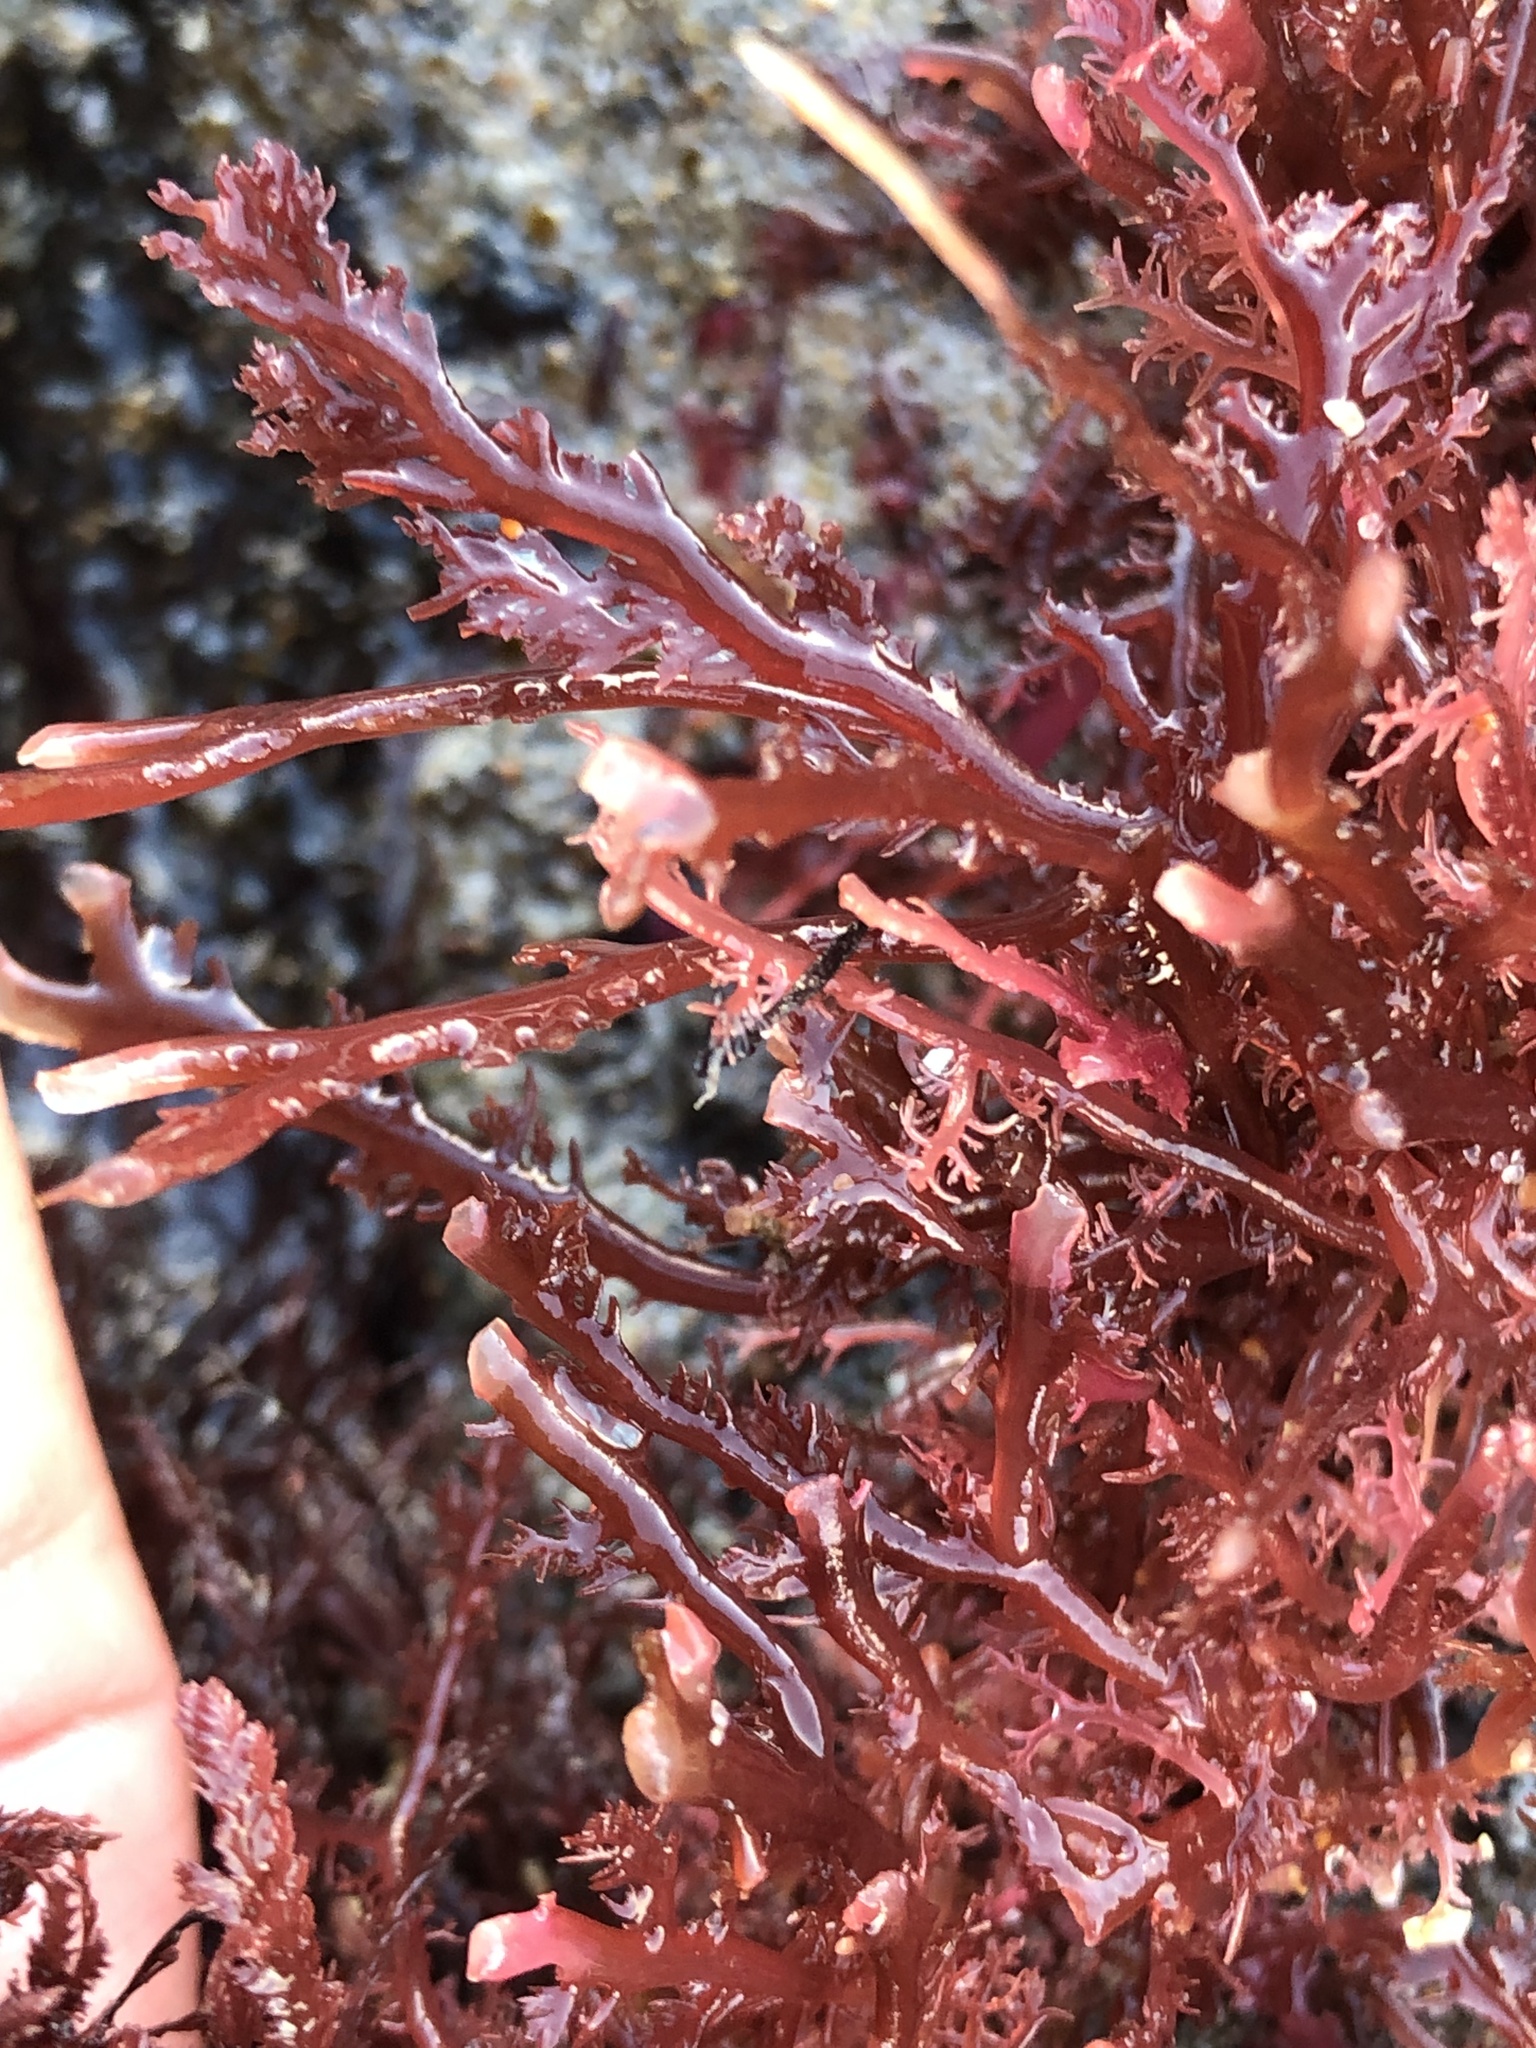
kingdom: Plantae
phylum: Rhodophyta
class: Florideophyceae
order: Plocamiales
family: Plocamiaceae
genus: Plocamium
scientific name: Plocamium cartilagineum
